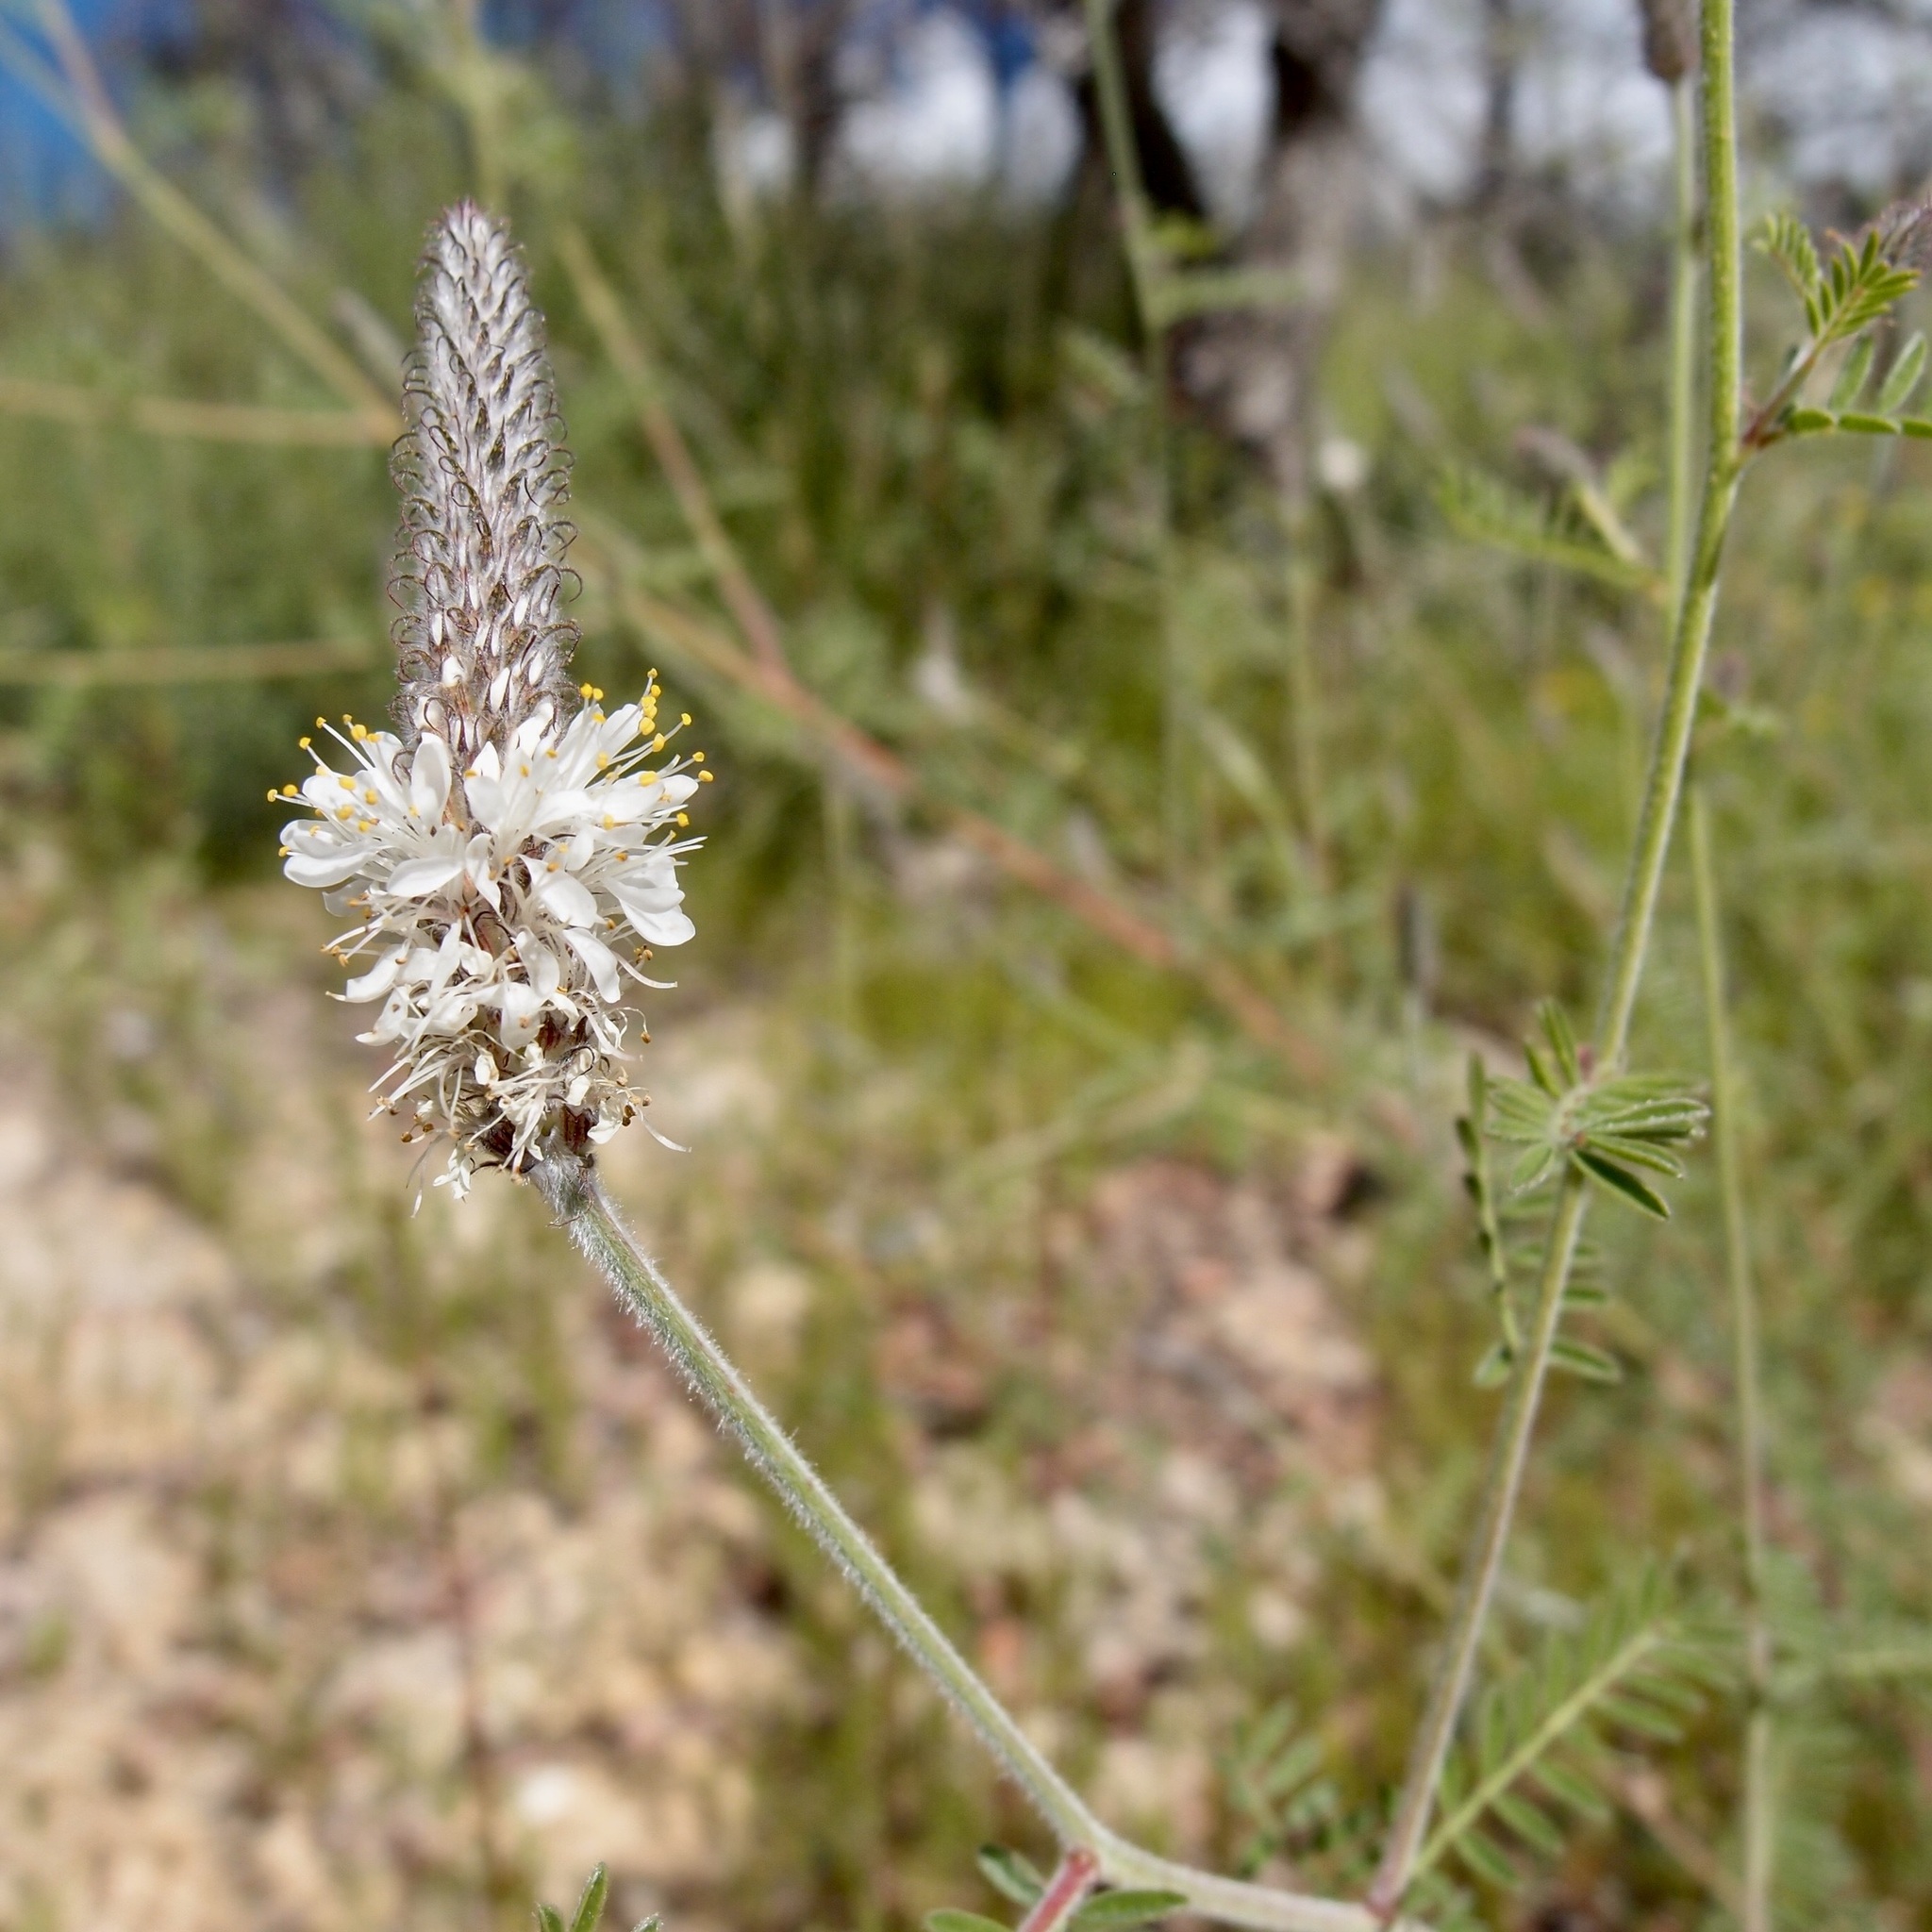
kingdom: Plantae
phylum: Tracheophyta
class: Magnoliopsida
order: Fabales
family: Fabaceae
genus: Dalea
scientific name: Dalea albiflora
